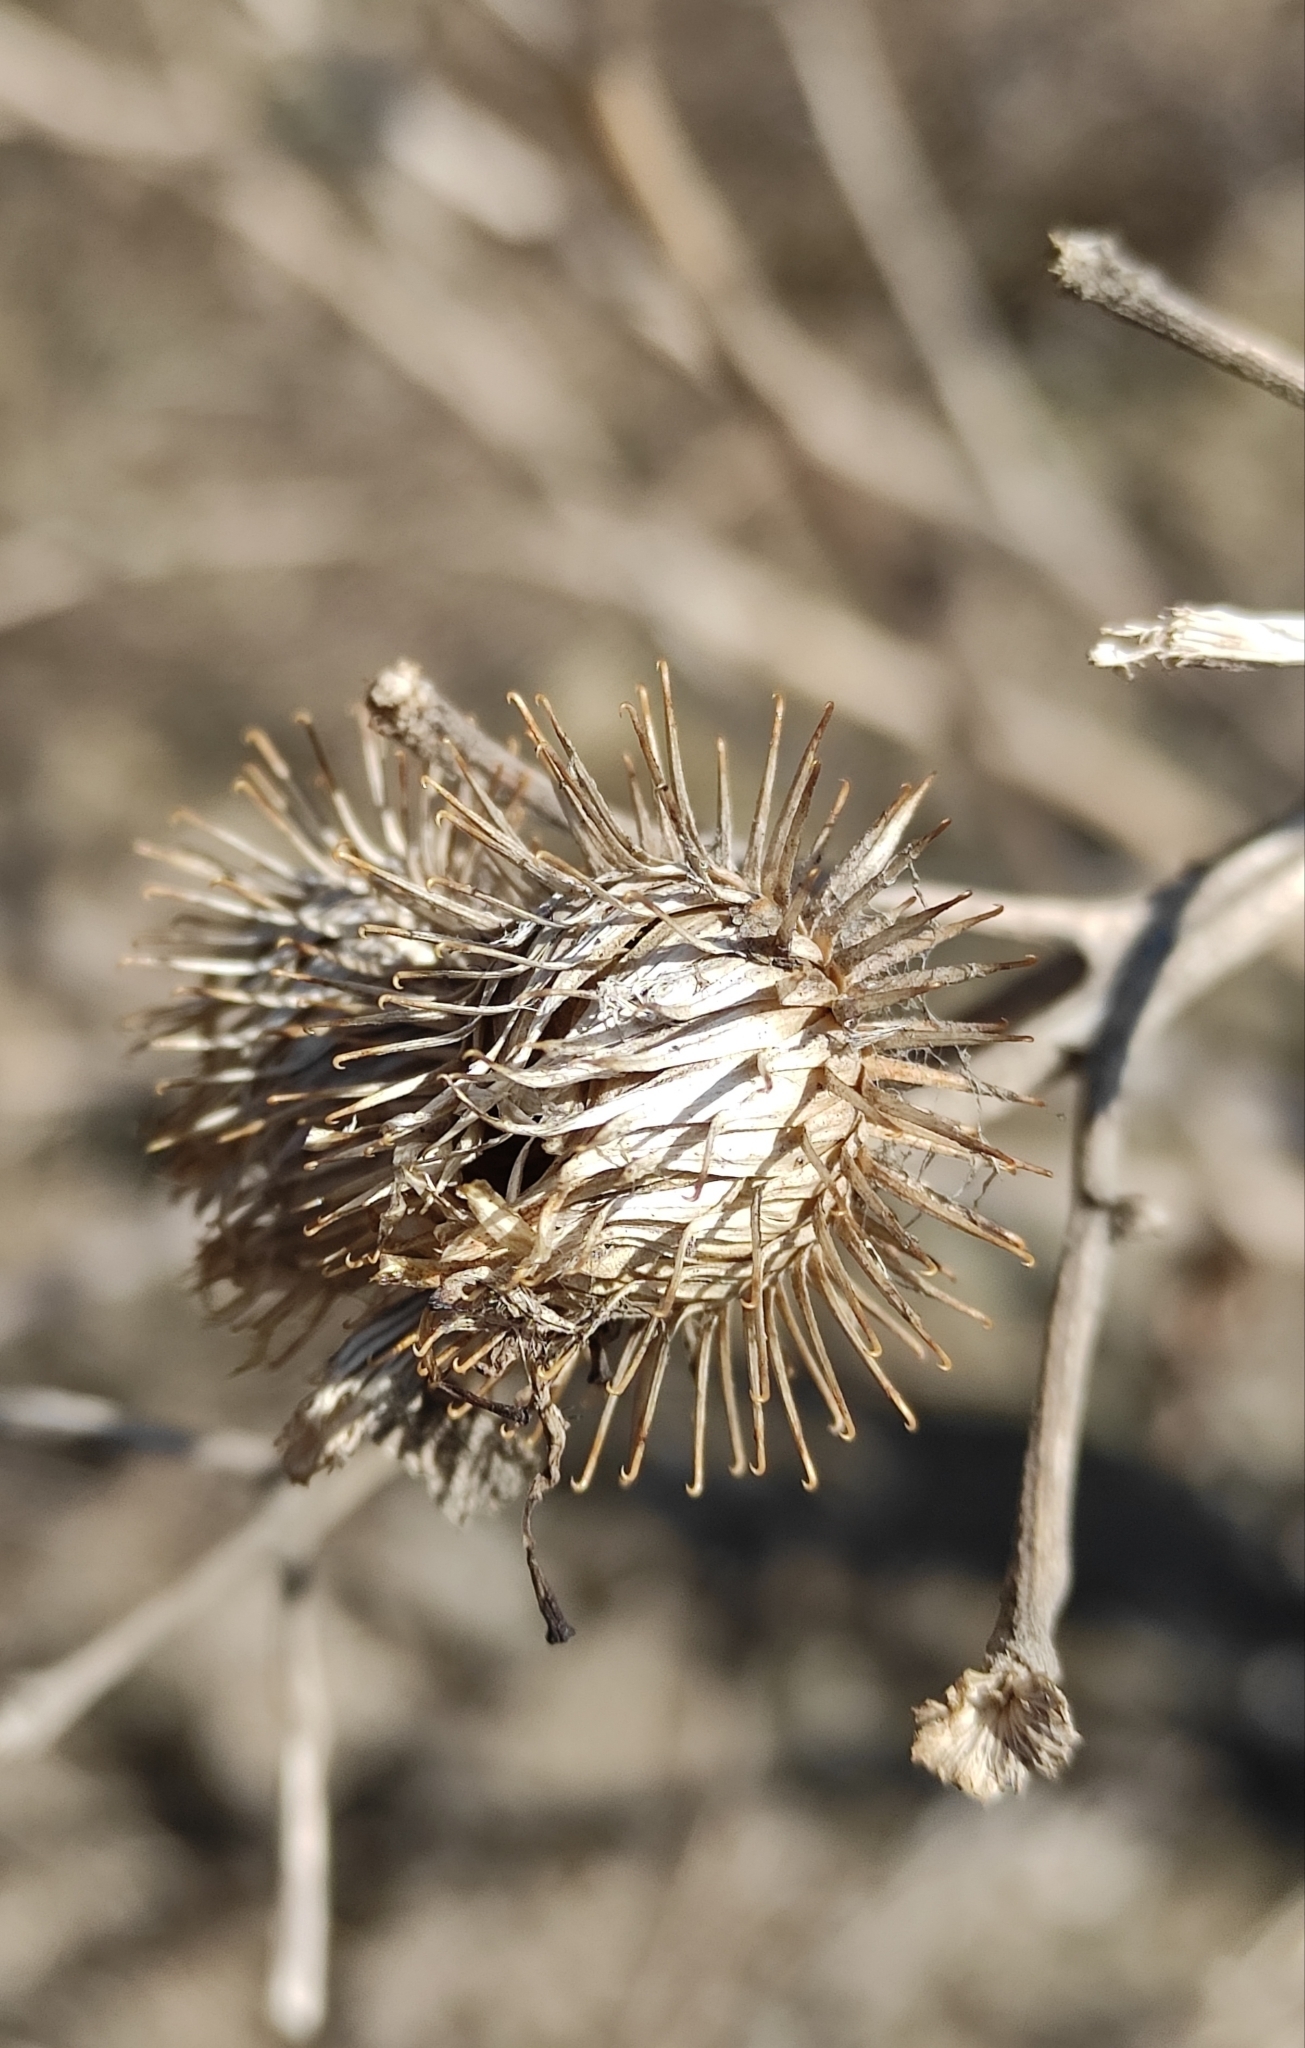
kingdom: Plantae
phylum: Tracheophyta
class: Magnoliopsida
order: Asterales
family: Asteraceae
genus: Arctium
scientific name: Arctium tomentosum
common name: Woolly burdock
